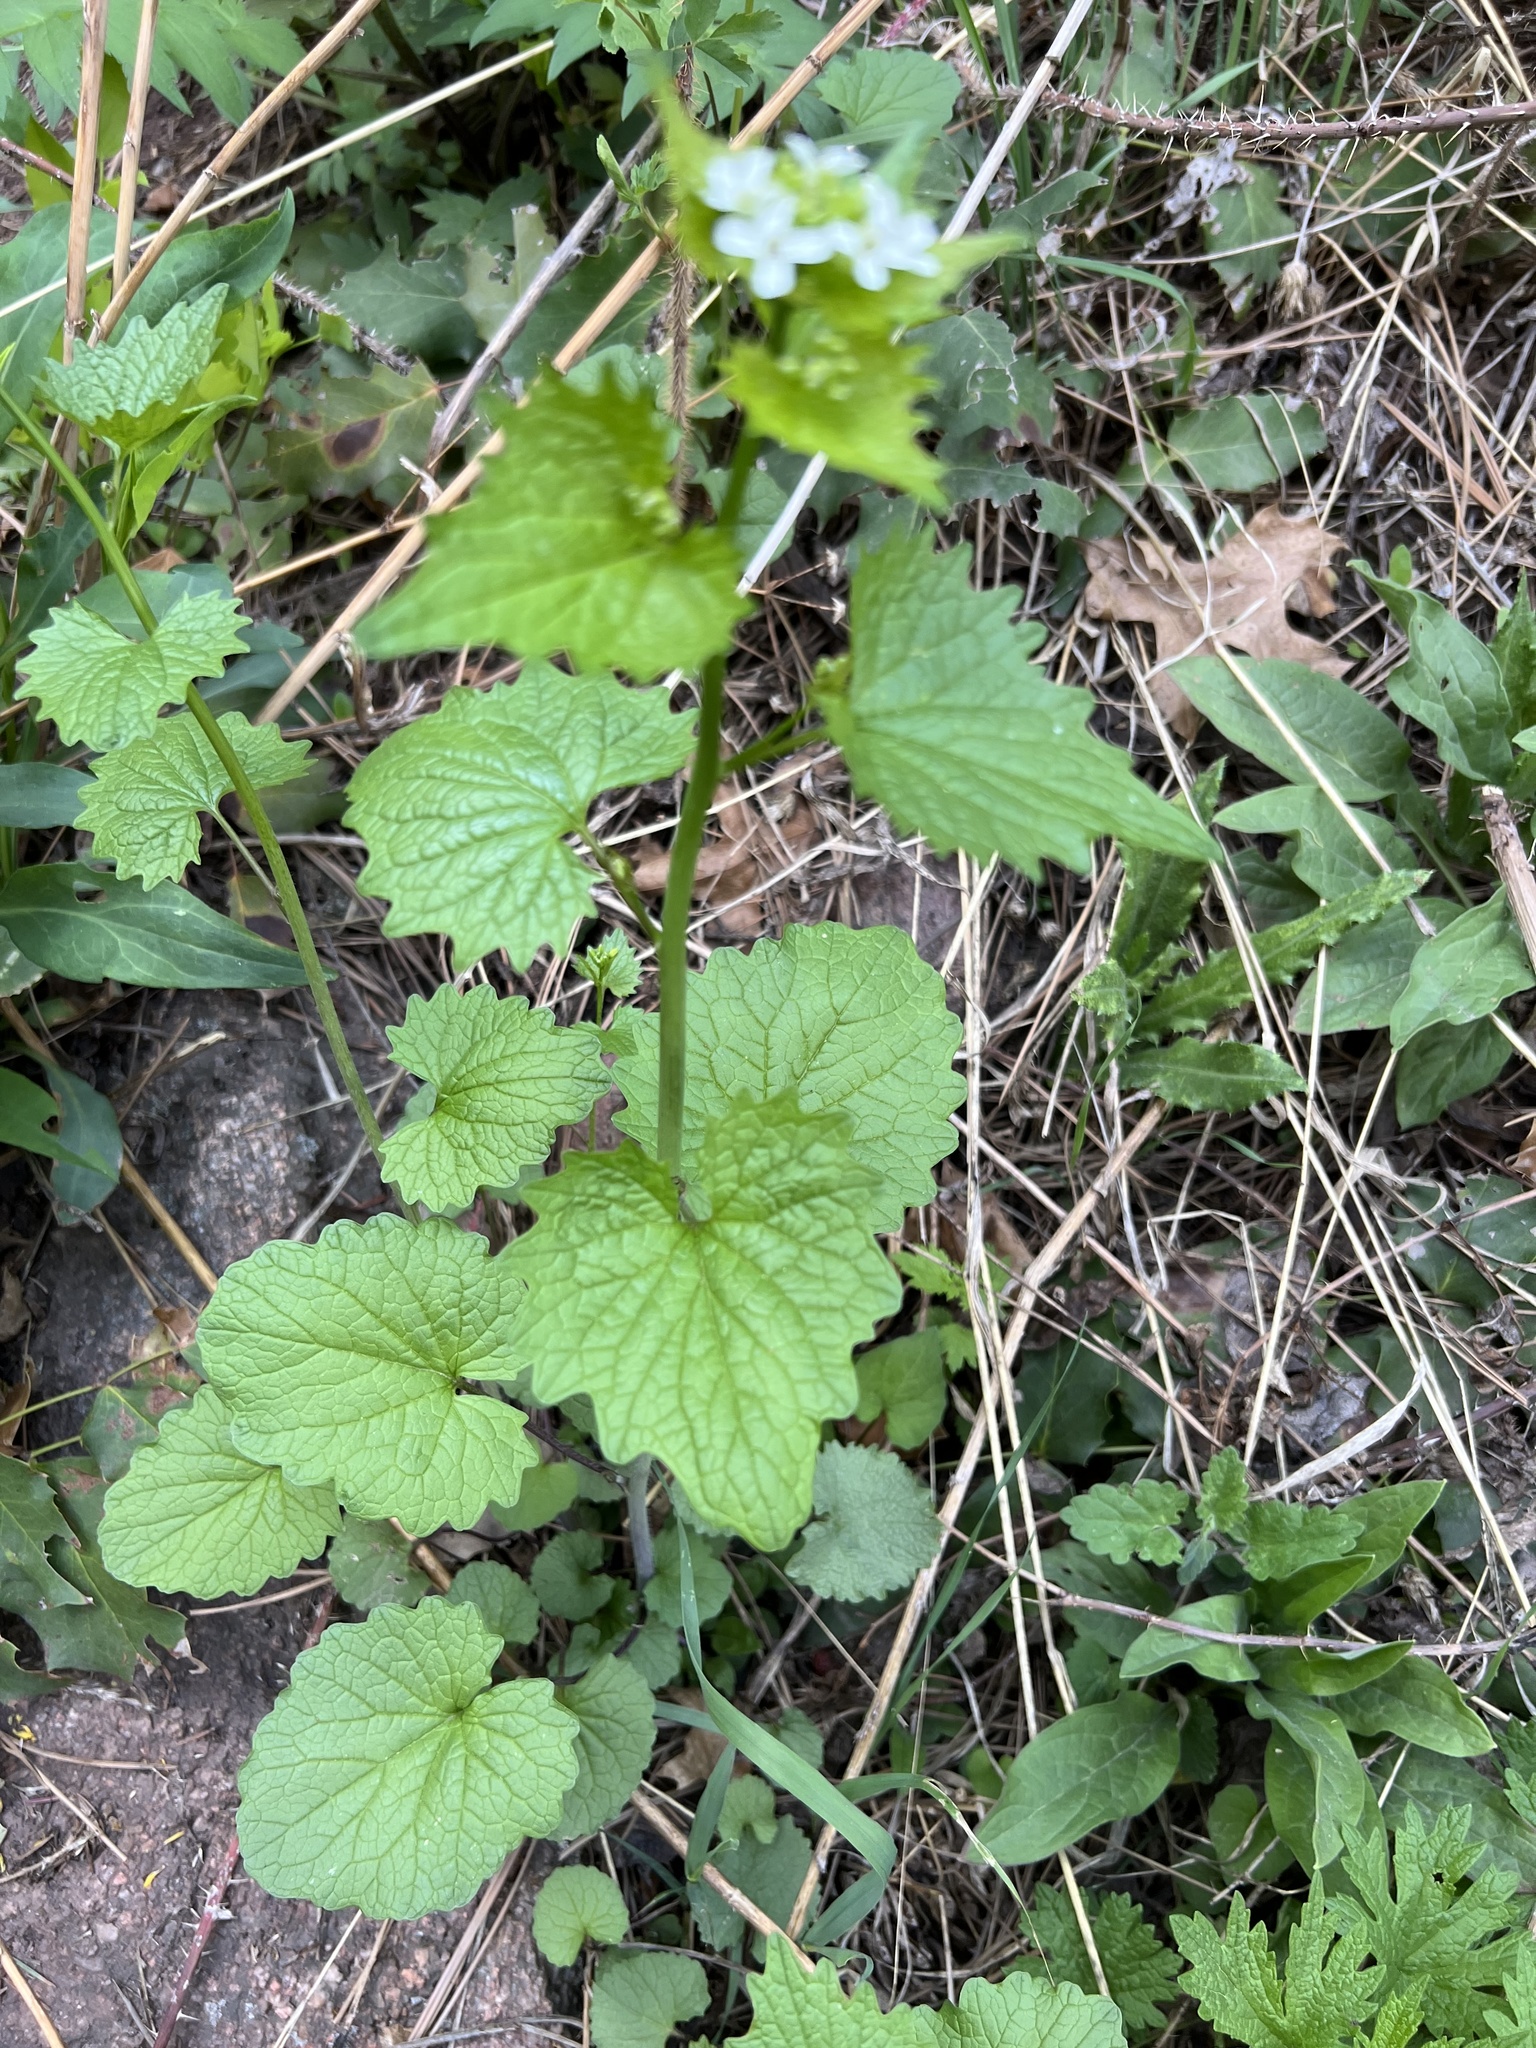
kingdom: Plantae
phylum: Tracheophyta
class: Magnoliopsida
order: Brassicales
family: Brassicaceae
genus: Alliaria
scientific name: Alliaria petiolata
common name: Garlic mustard
